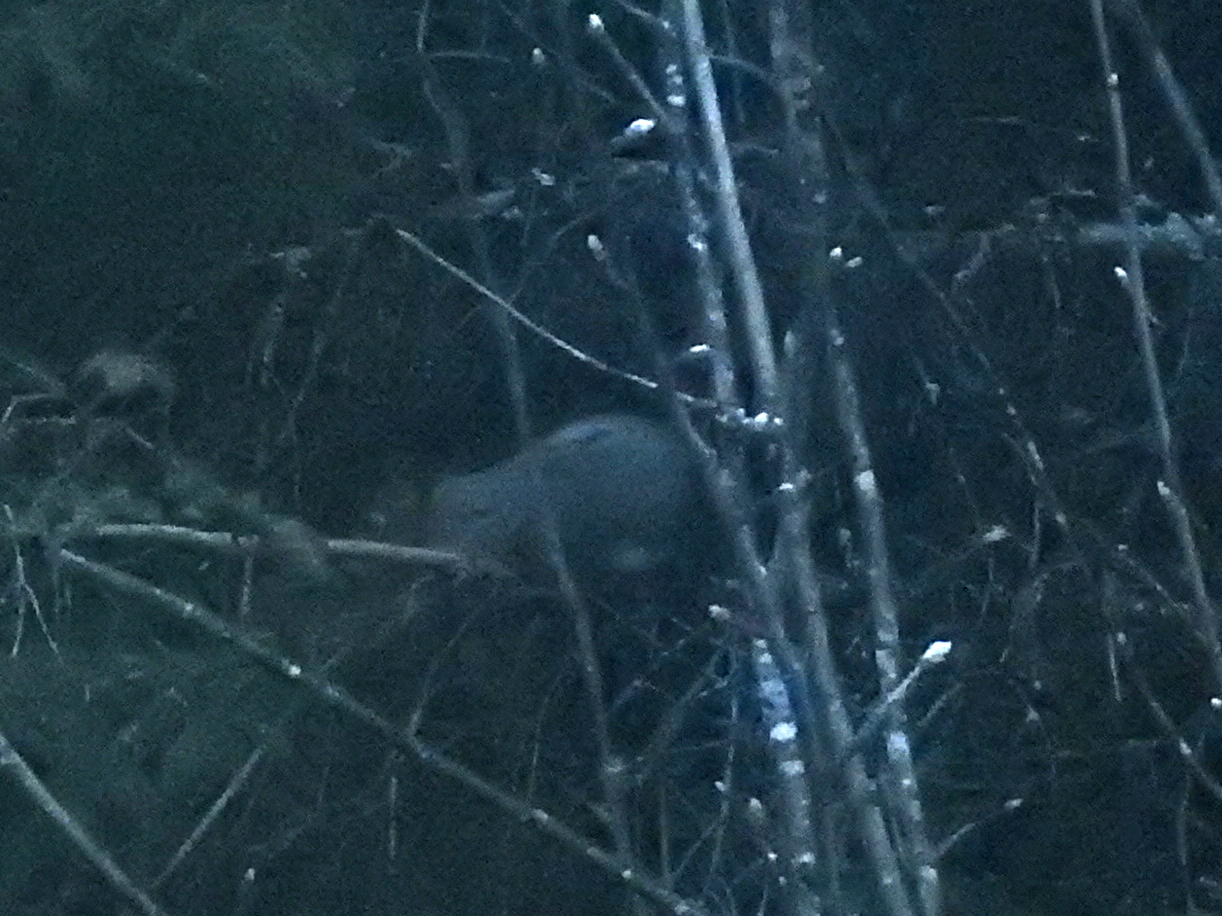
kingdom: Animalia
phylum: Chordata
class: Mammalia
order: Rodentia
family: Sciuridae
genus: Sciurus
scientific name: Sciurus vulgaris
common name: Eurasian red squirrel
